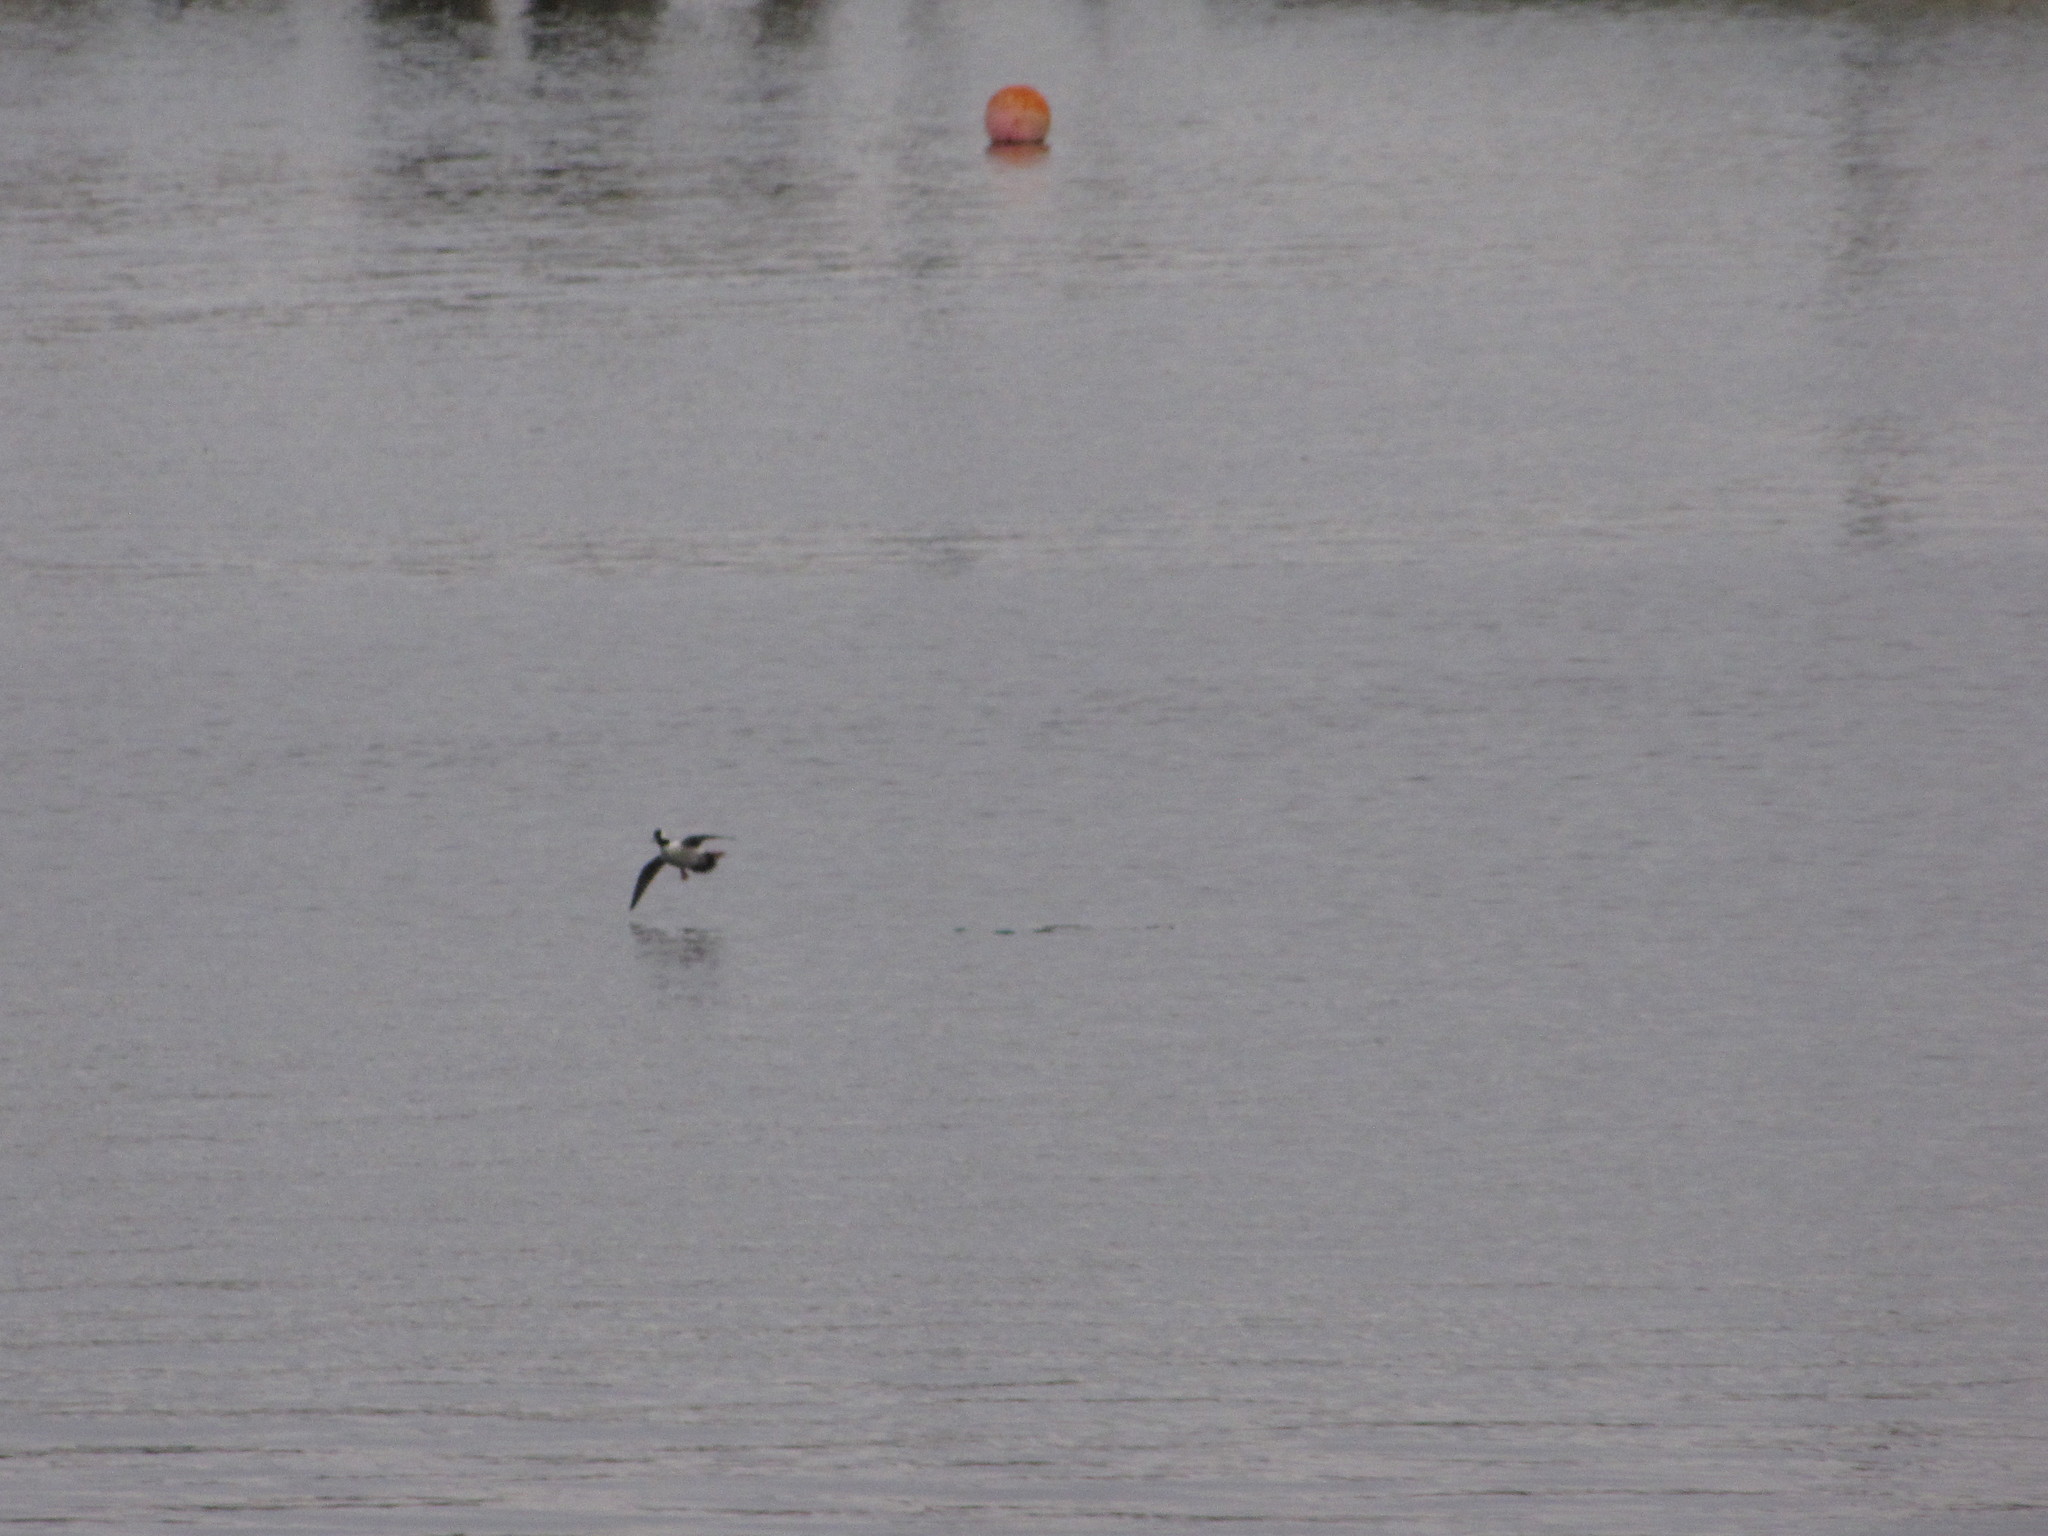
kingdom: Animalia
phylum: Chordata
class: Aves
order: Anseriformes
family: Anatidae
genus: Bucephala
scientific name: Bucephala albeola
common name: Bufflehead
